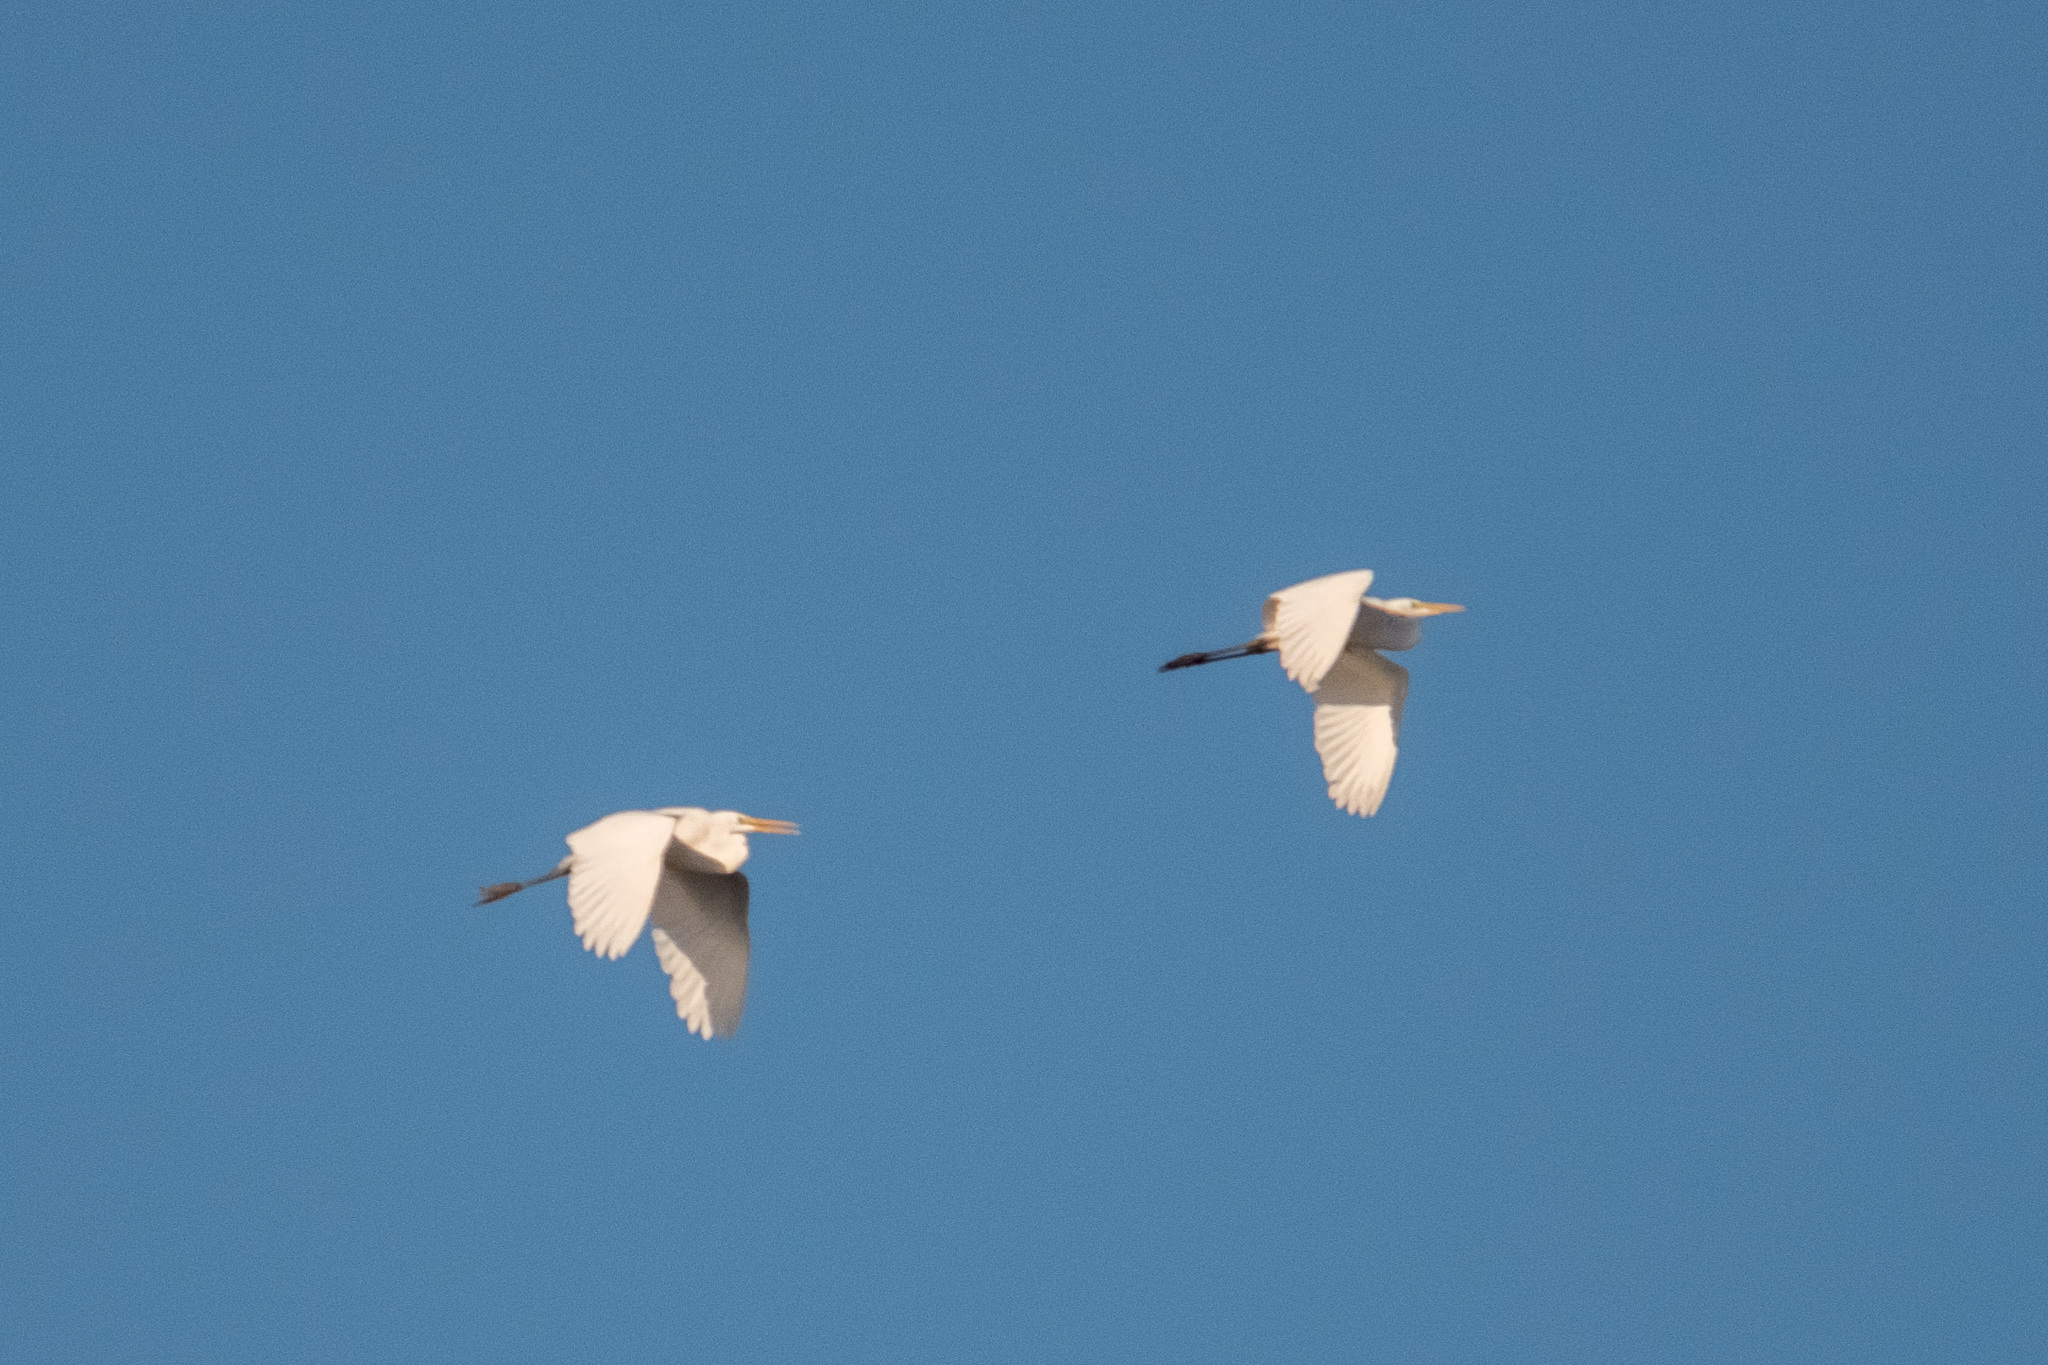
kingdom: Animalia
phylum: Chordata
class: Aves
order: Pelecaniformes
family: Ardeidae
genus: Ardea
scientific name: Ardea alba
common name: Great egret
